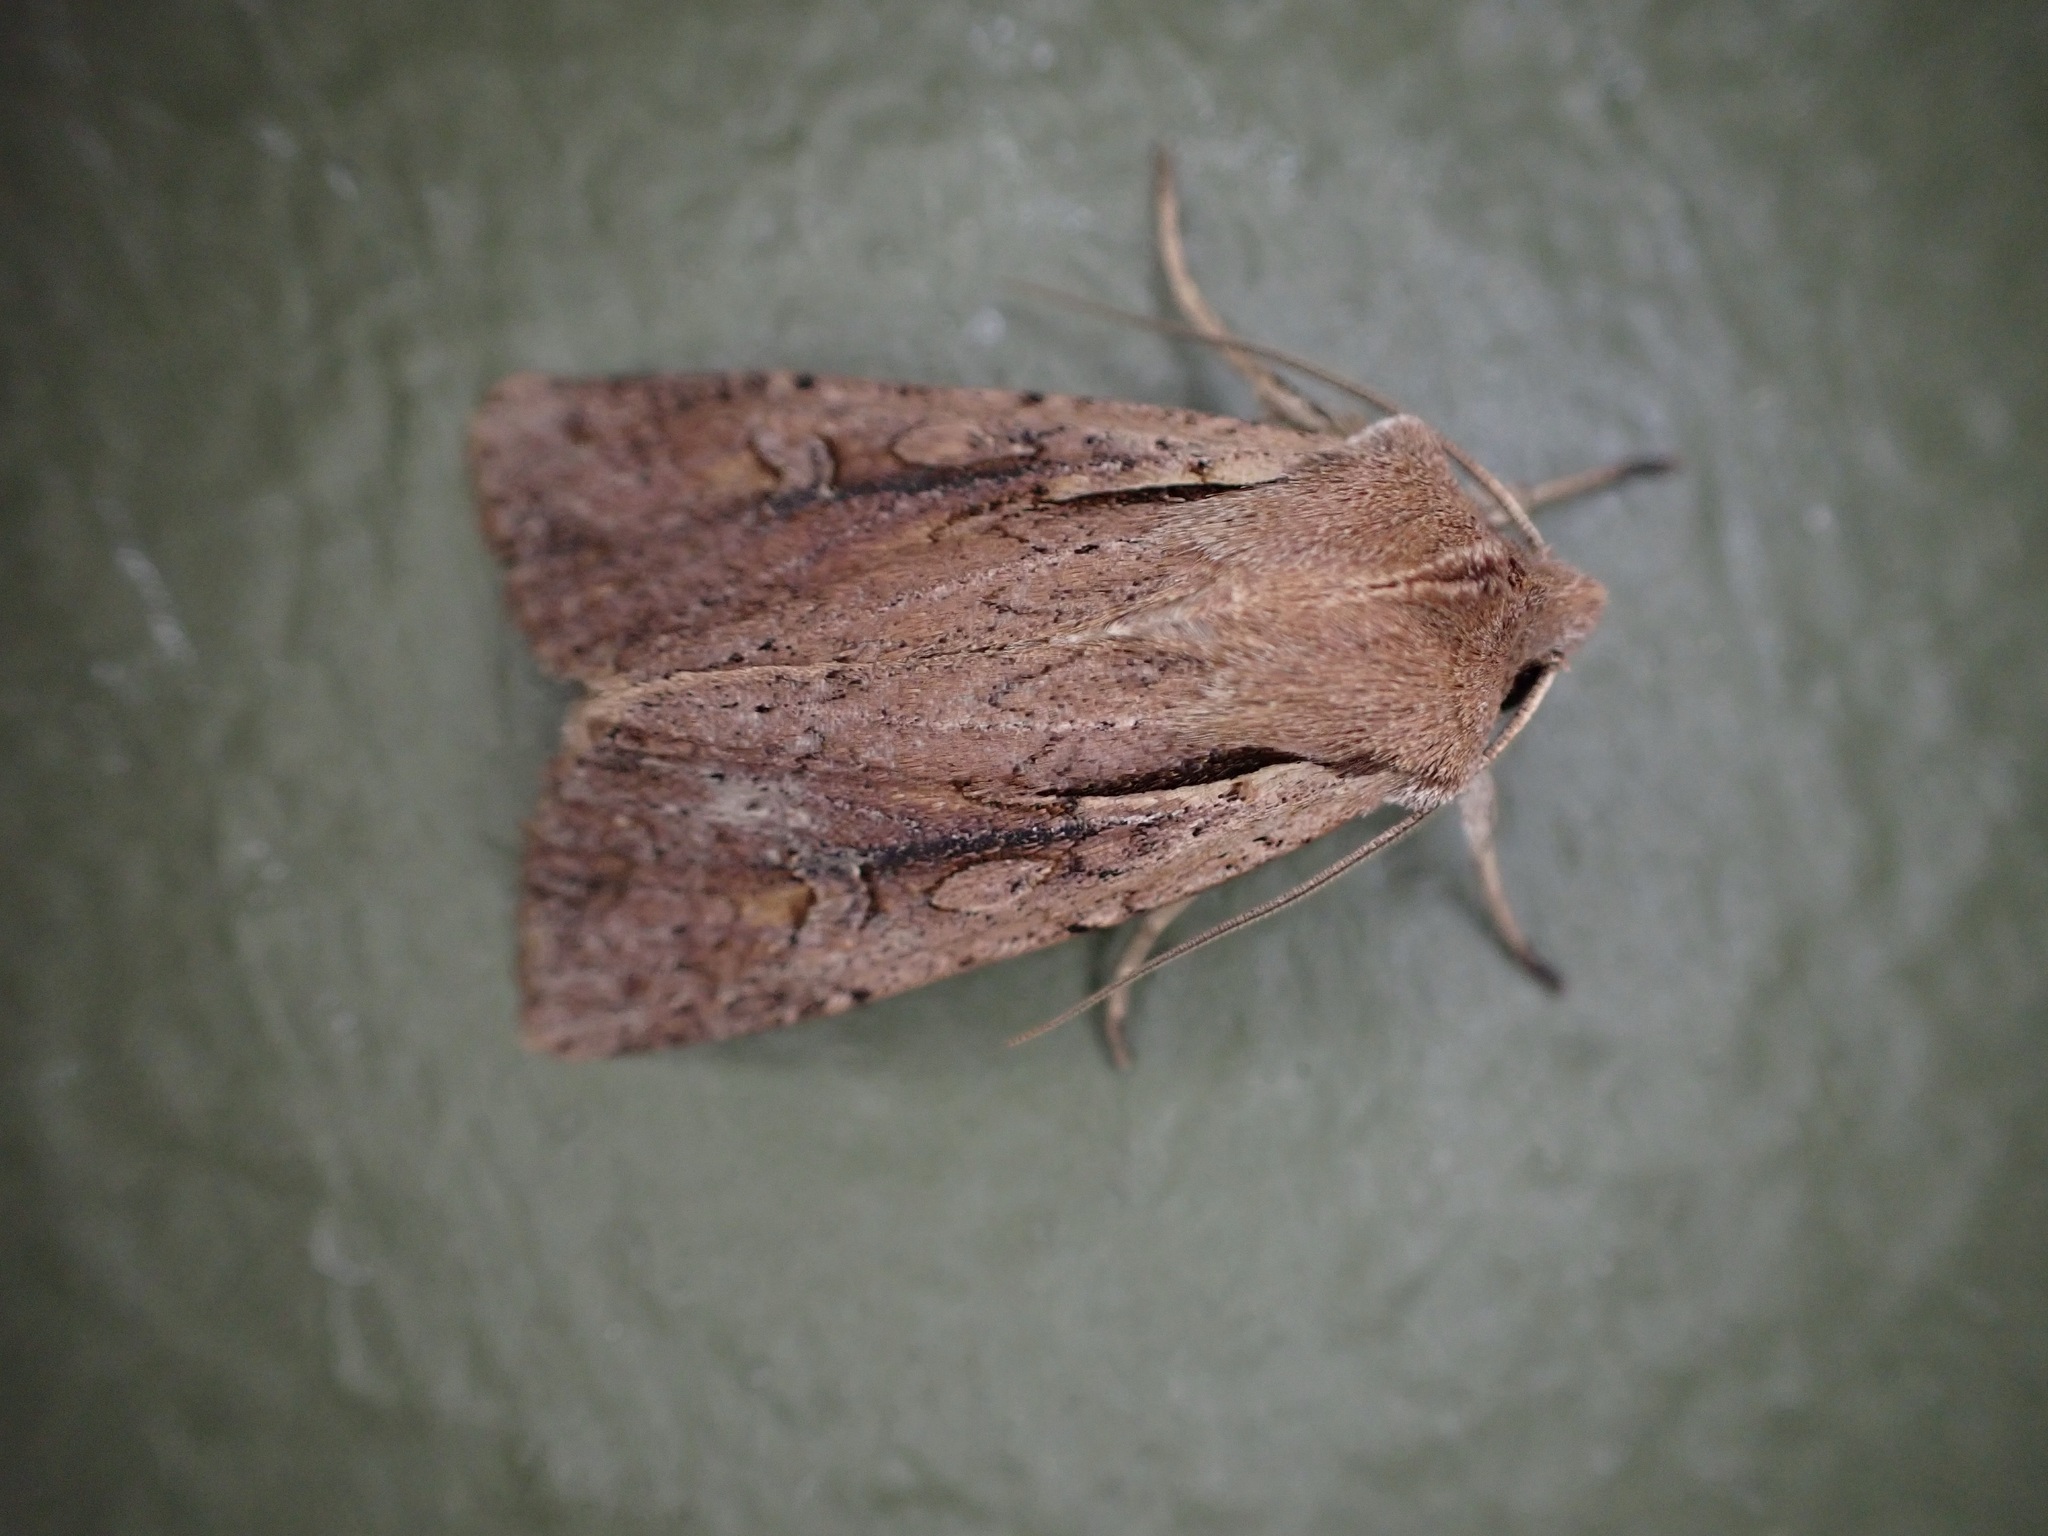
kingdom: Animalia
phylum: Arthropoda
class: Insecta
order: Lepidoptera
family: Noctuidae
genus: Ichneutica
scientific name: Ichneutica atristriga
